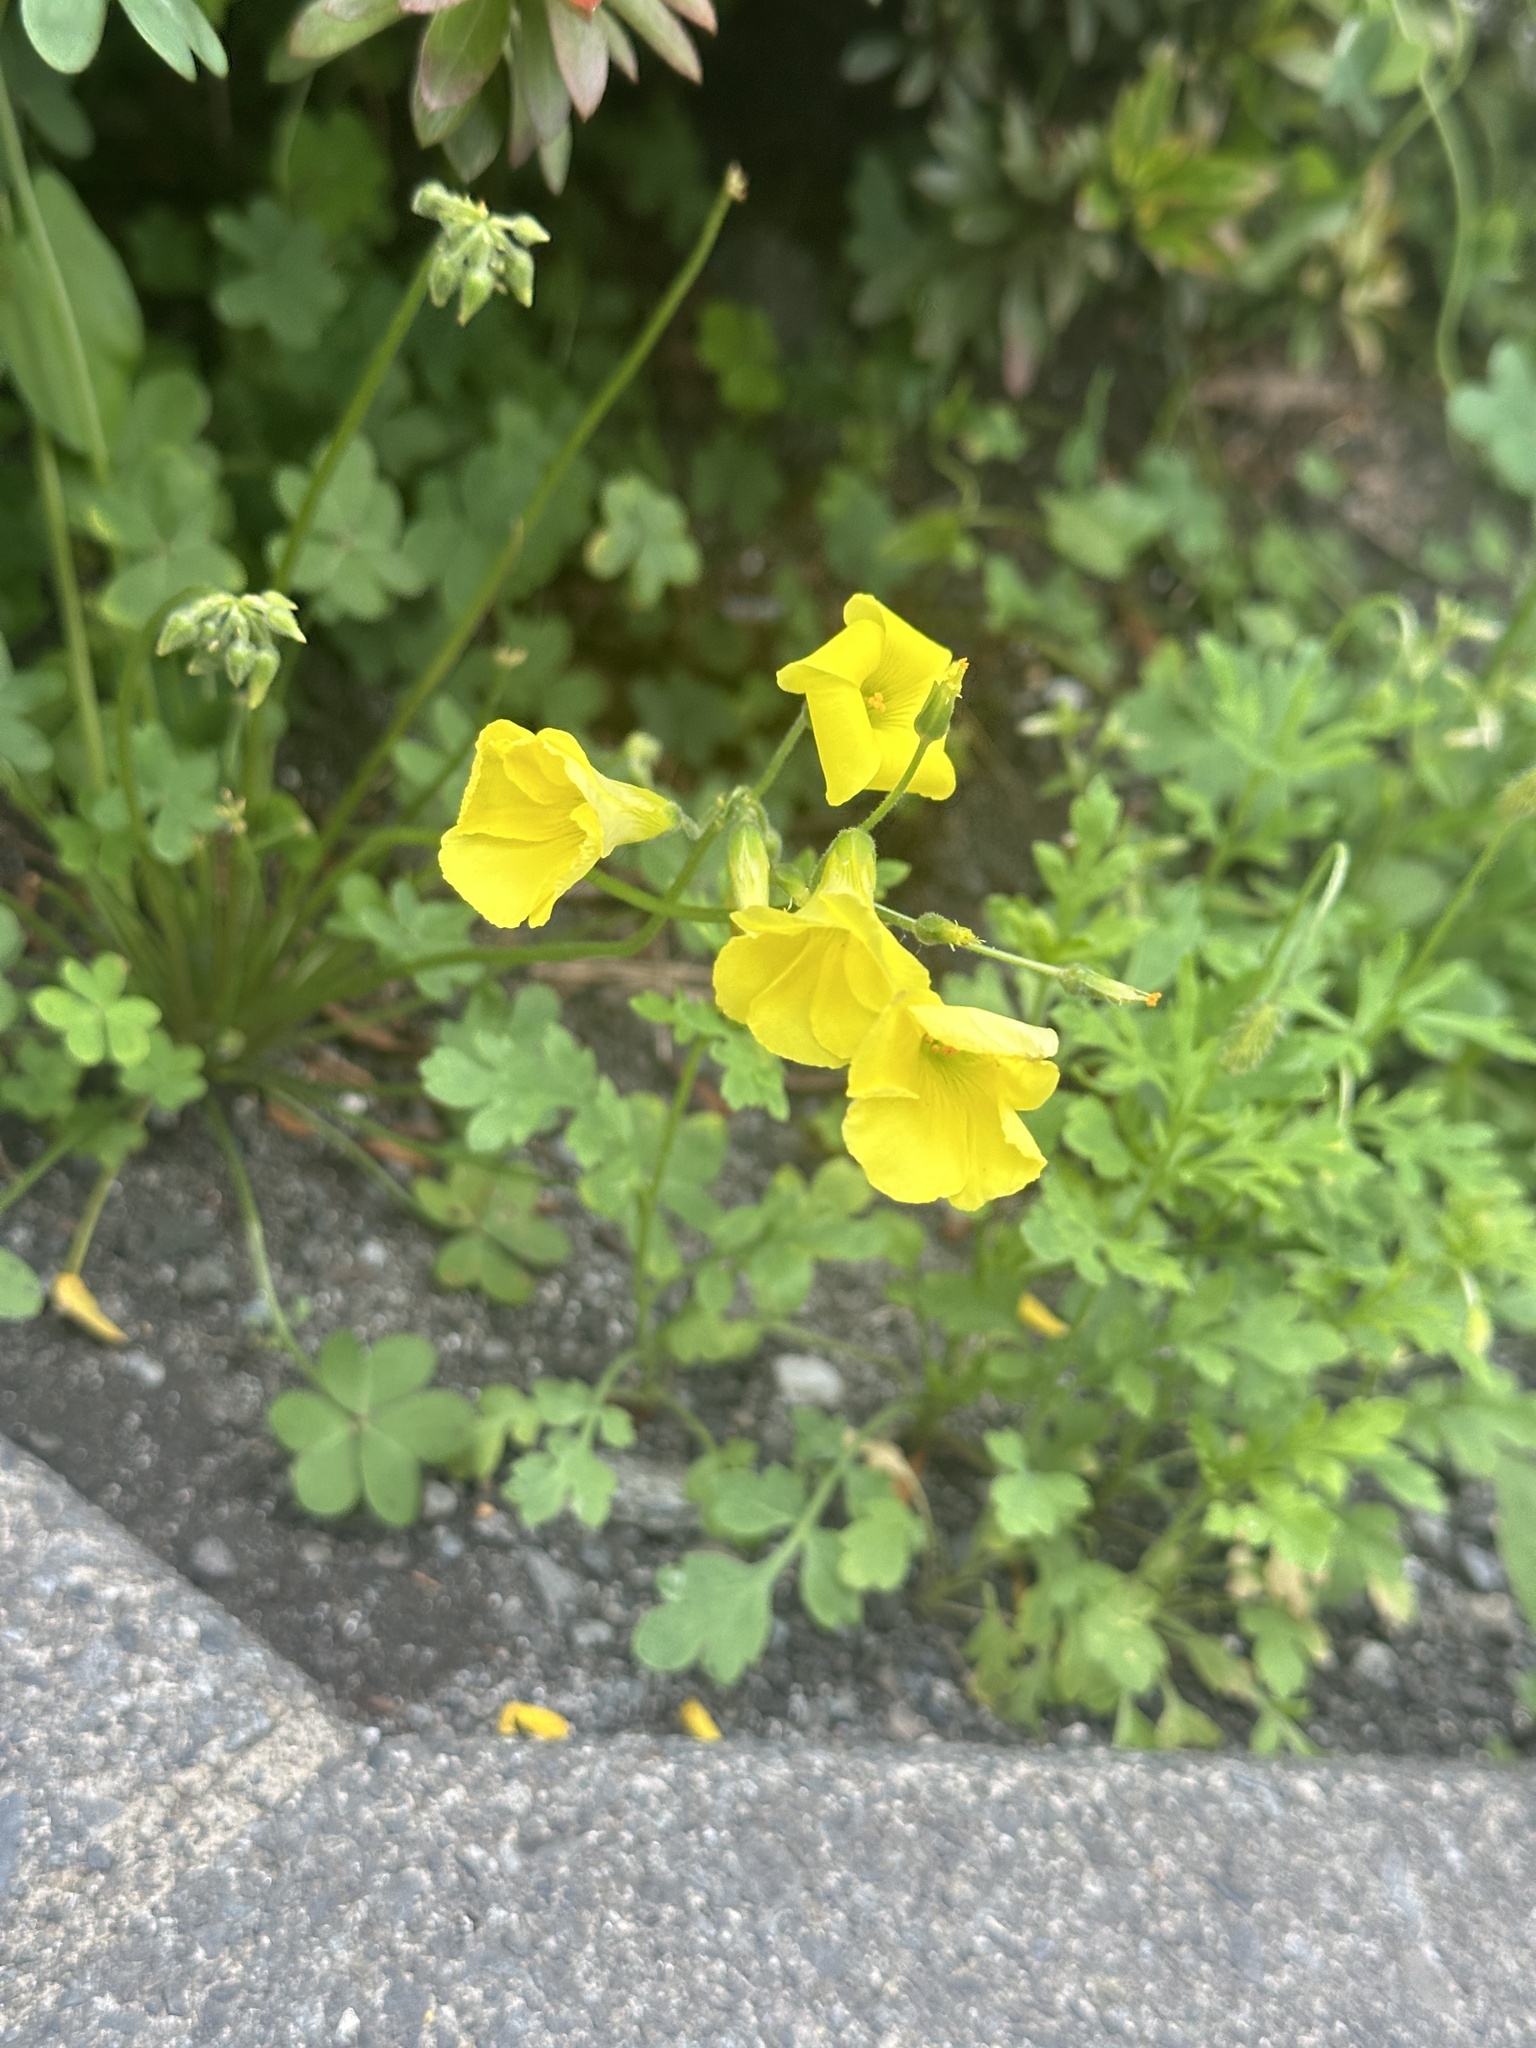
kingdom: Plantae
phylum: Tracheophyta
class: Magnoliopsida
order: Oxalidales
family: Oxalidaceae
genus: Oxalis
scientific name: Oxalis pes-caprae
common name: Bermuda-buttercup
